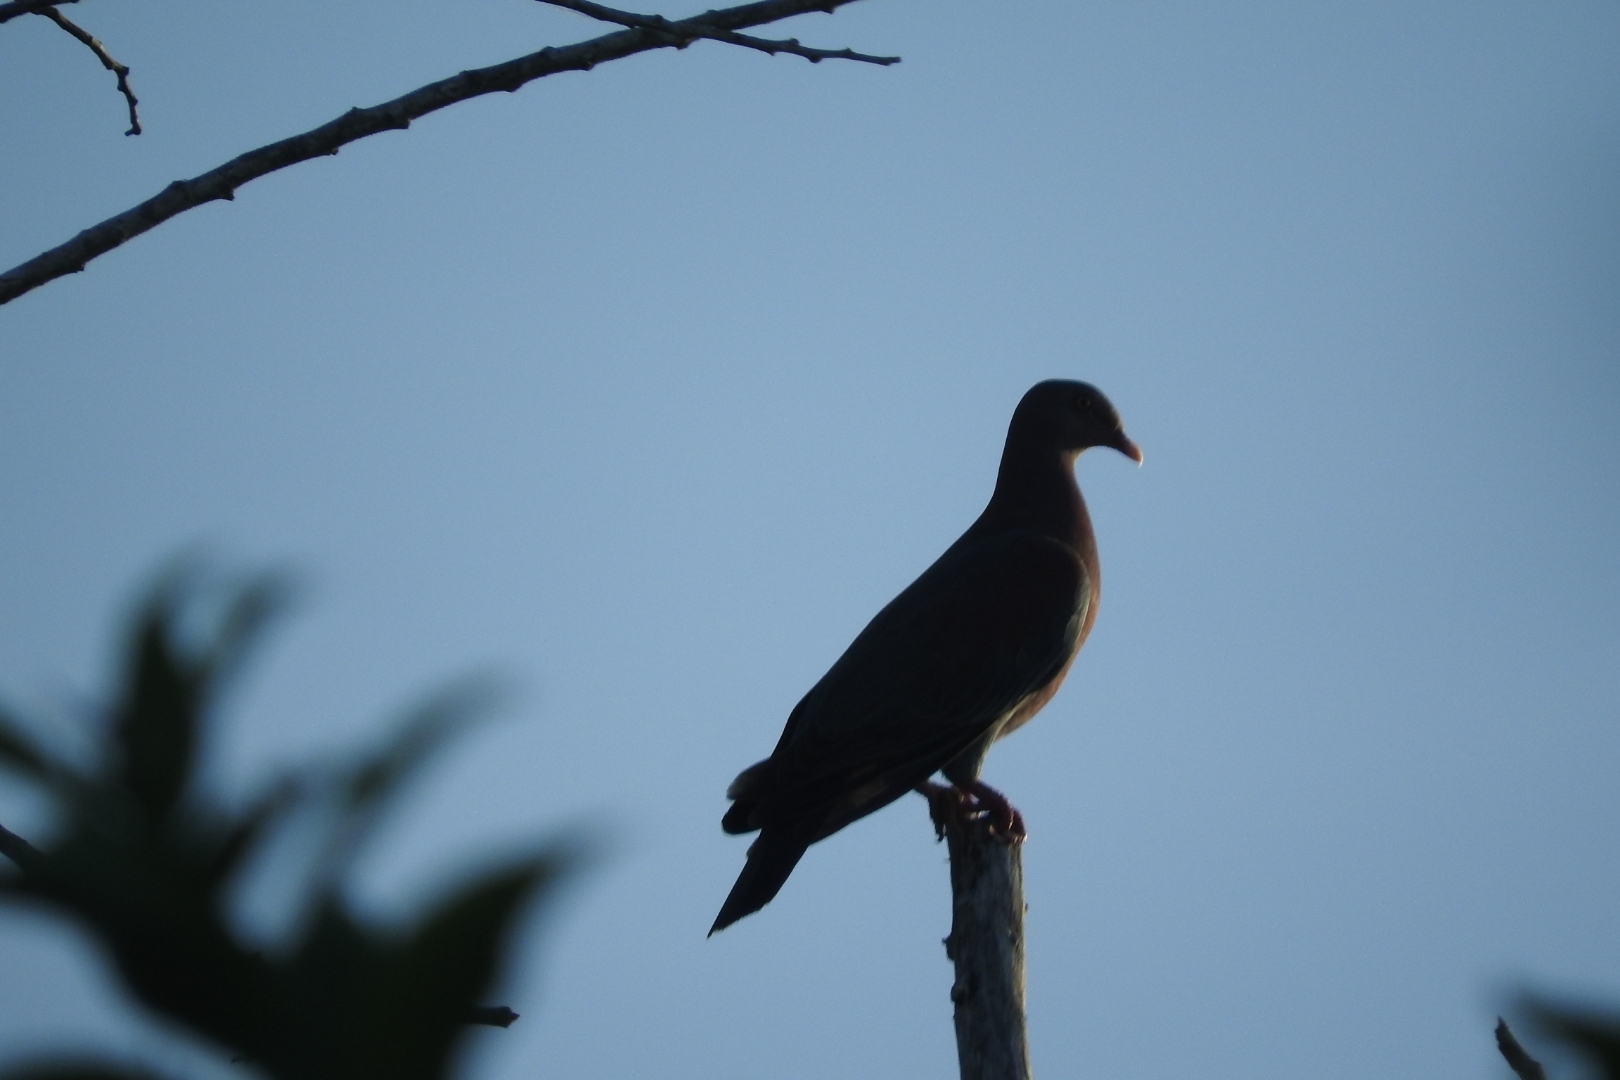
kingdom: Animalia
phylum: Chordata
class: Aves
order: Columbiformes
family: Columbidae
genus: Patagioenas
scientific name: Patagioenas flavirostris
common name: Red-billed pigeon
